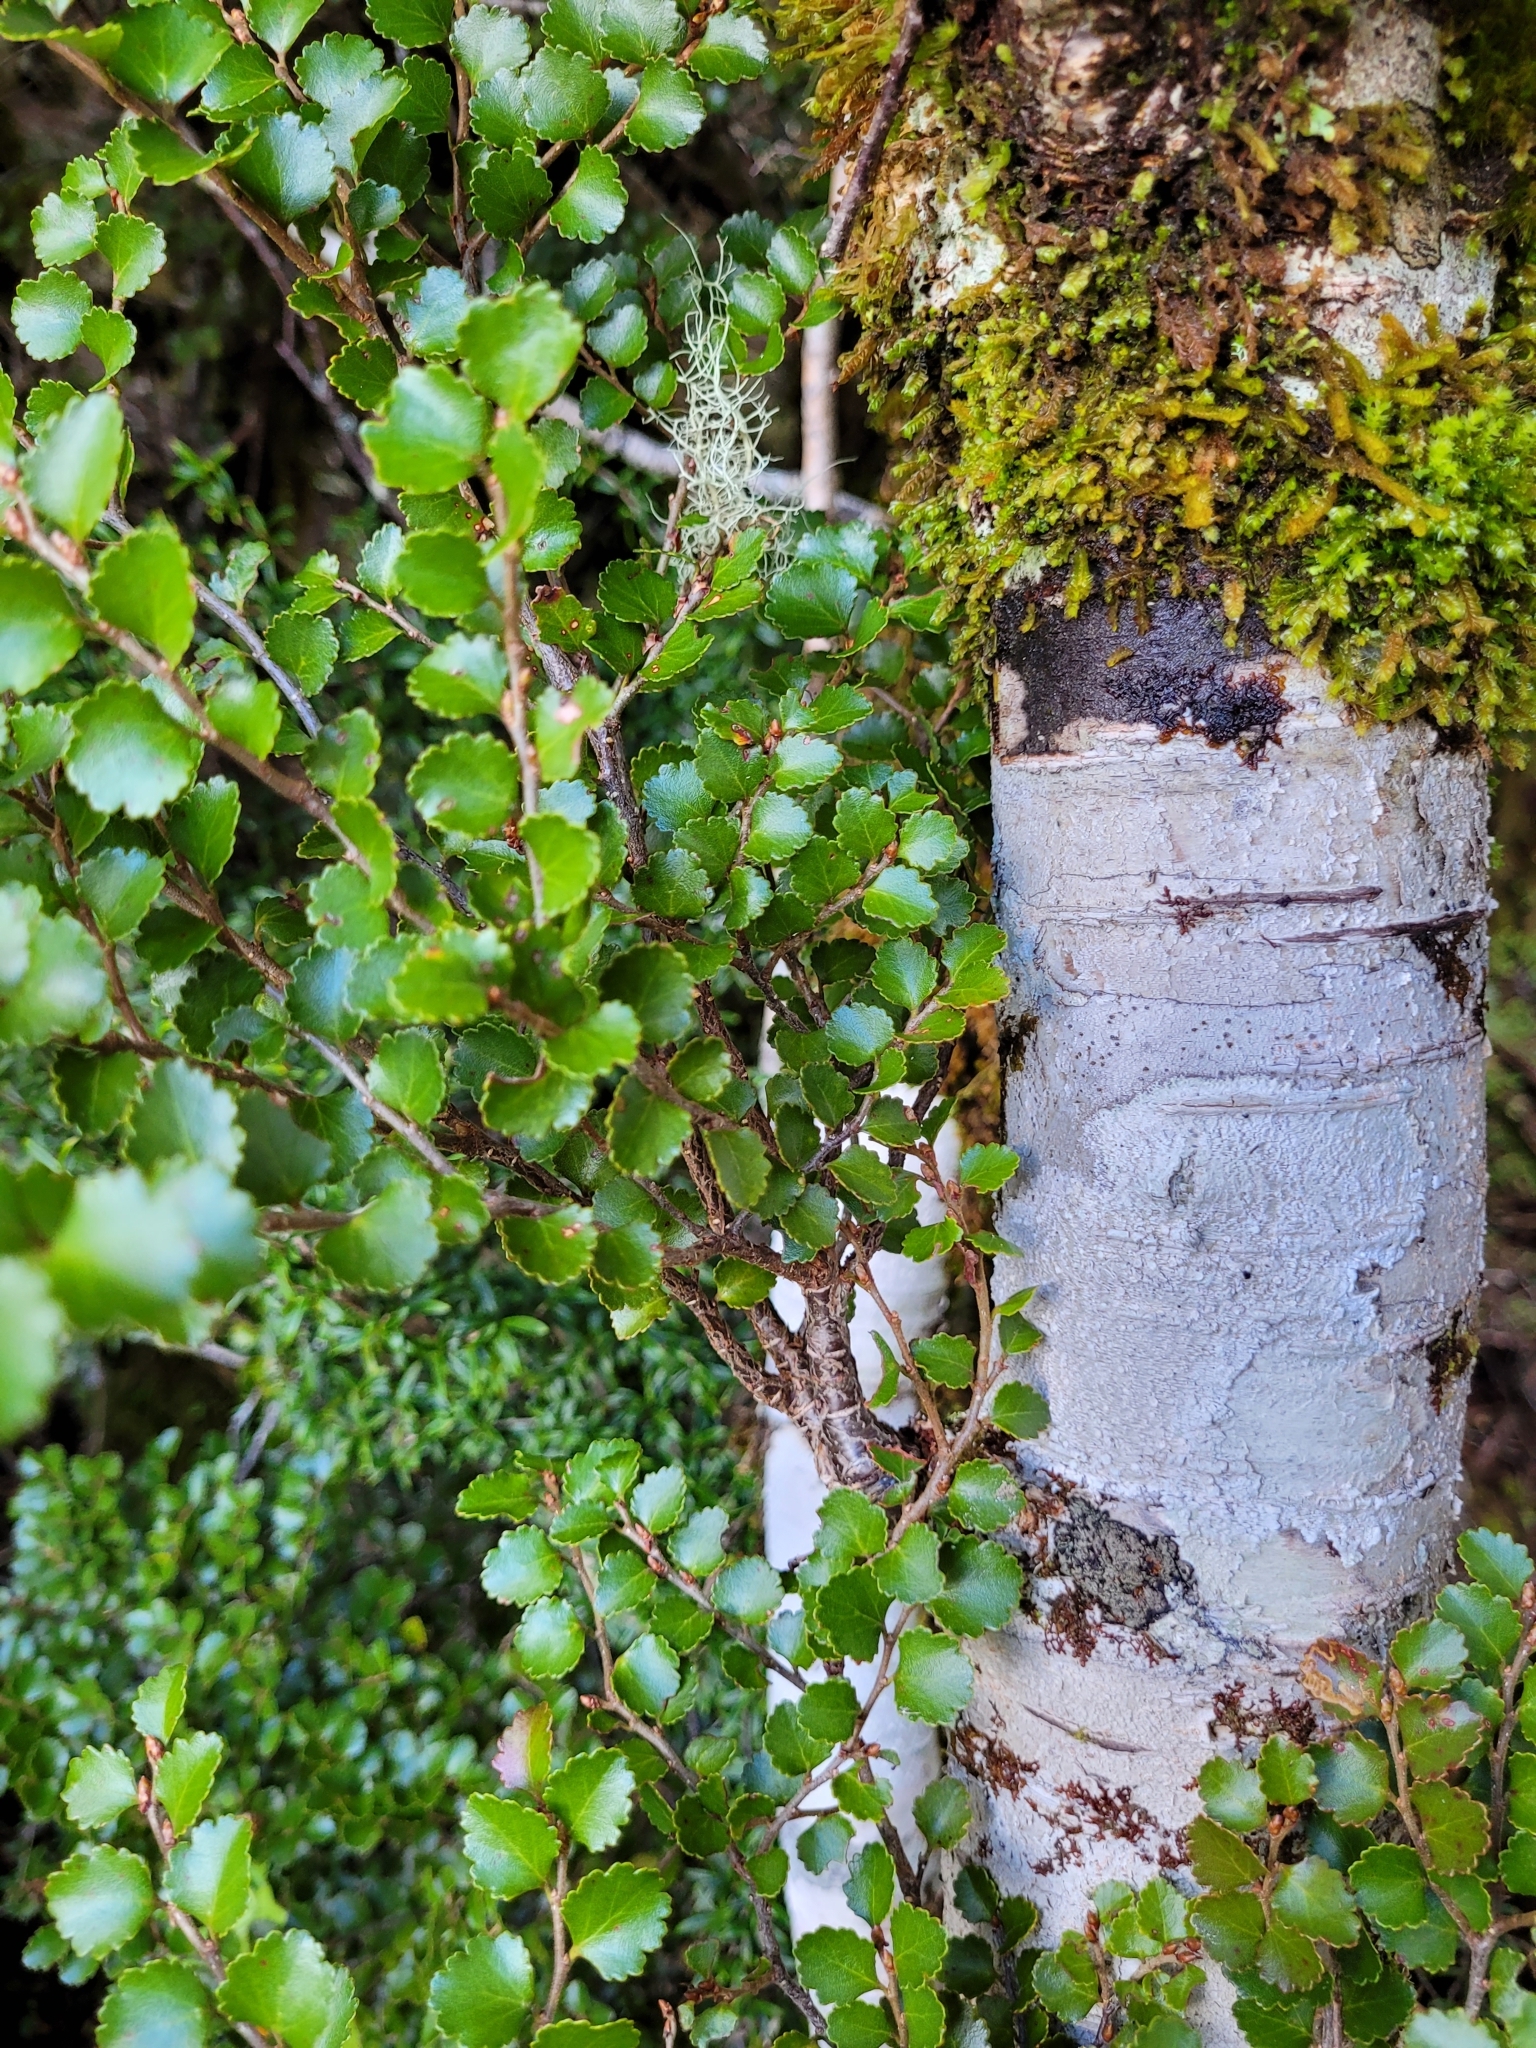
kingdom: Plantae
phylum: Tracheophyta
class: Magnoliopsida
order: Fagales
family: Nothofagaceae
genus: Nothofagus
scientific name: Nothofagus menziesii
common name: Silver beech
